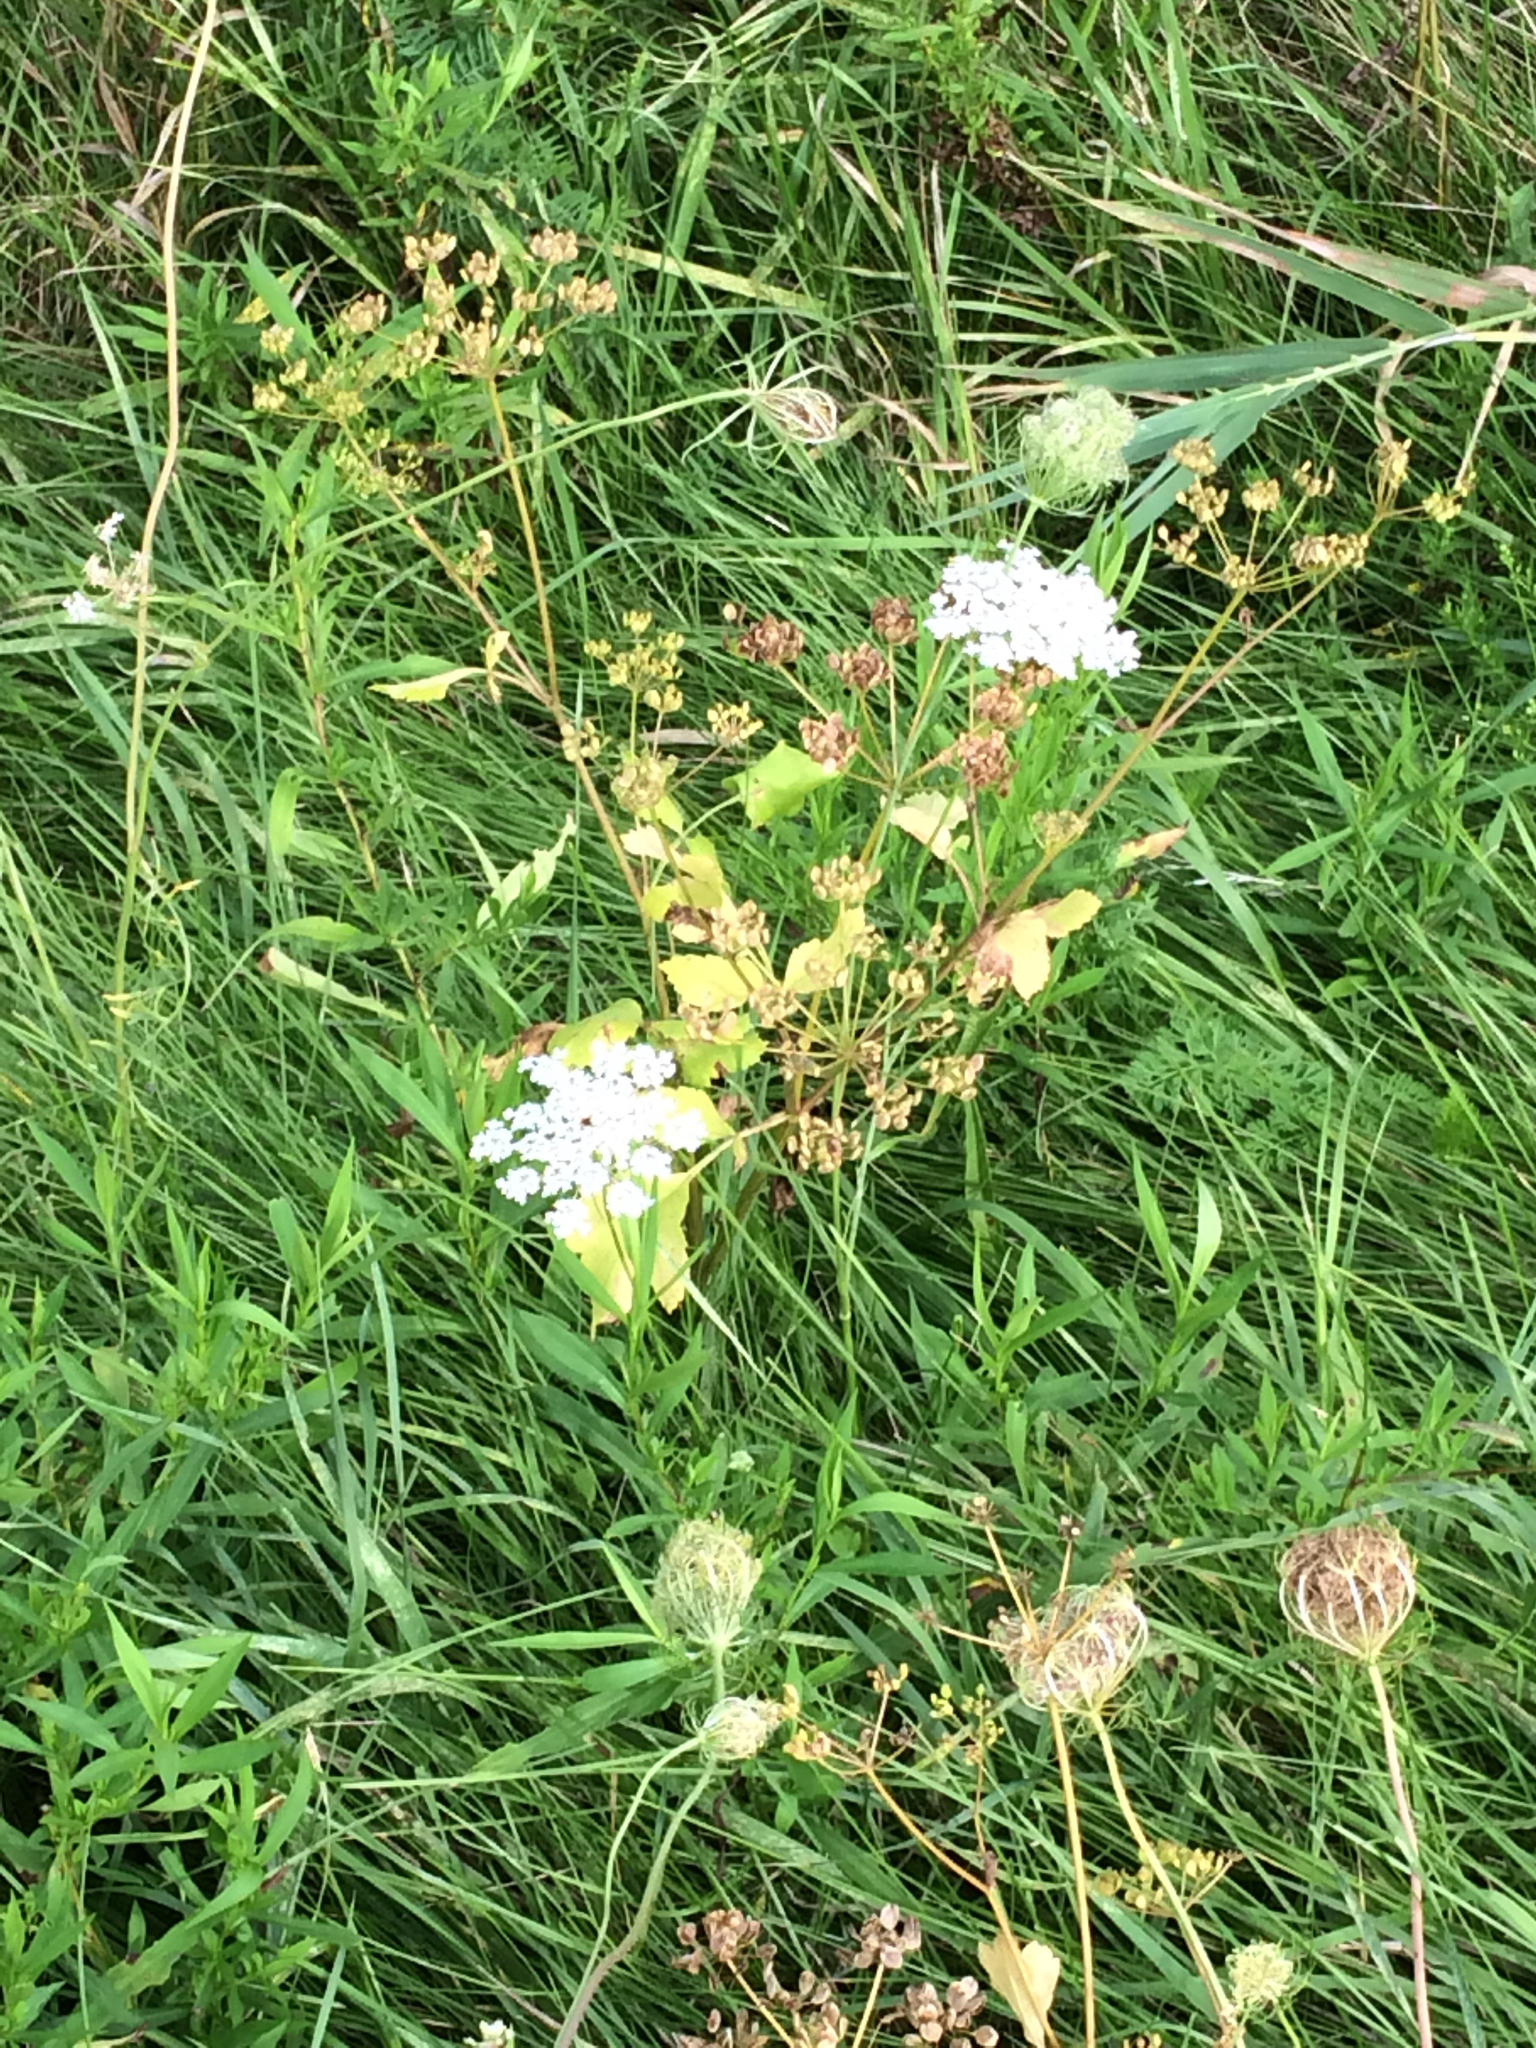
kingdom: Plantae
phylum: Tracheophyta
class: Magnoliopsida
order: Apiales
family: Apiaceae
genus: Pastinaca
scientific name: Pastinaca sativa
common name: Wild parsnip
